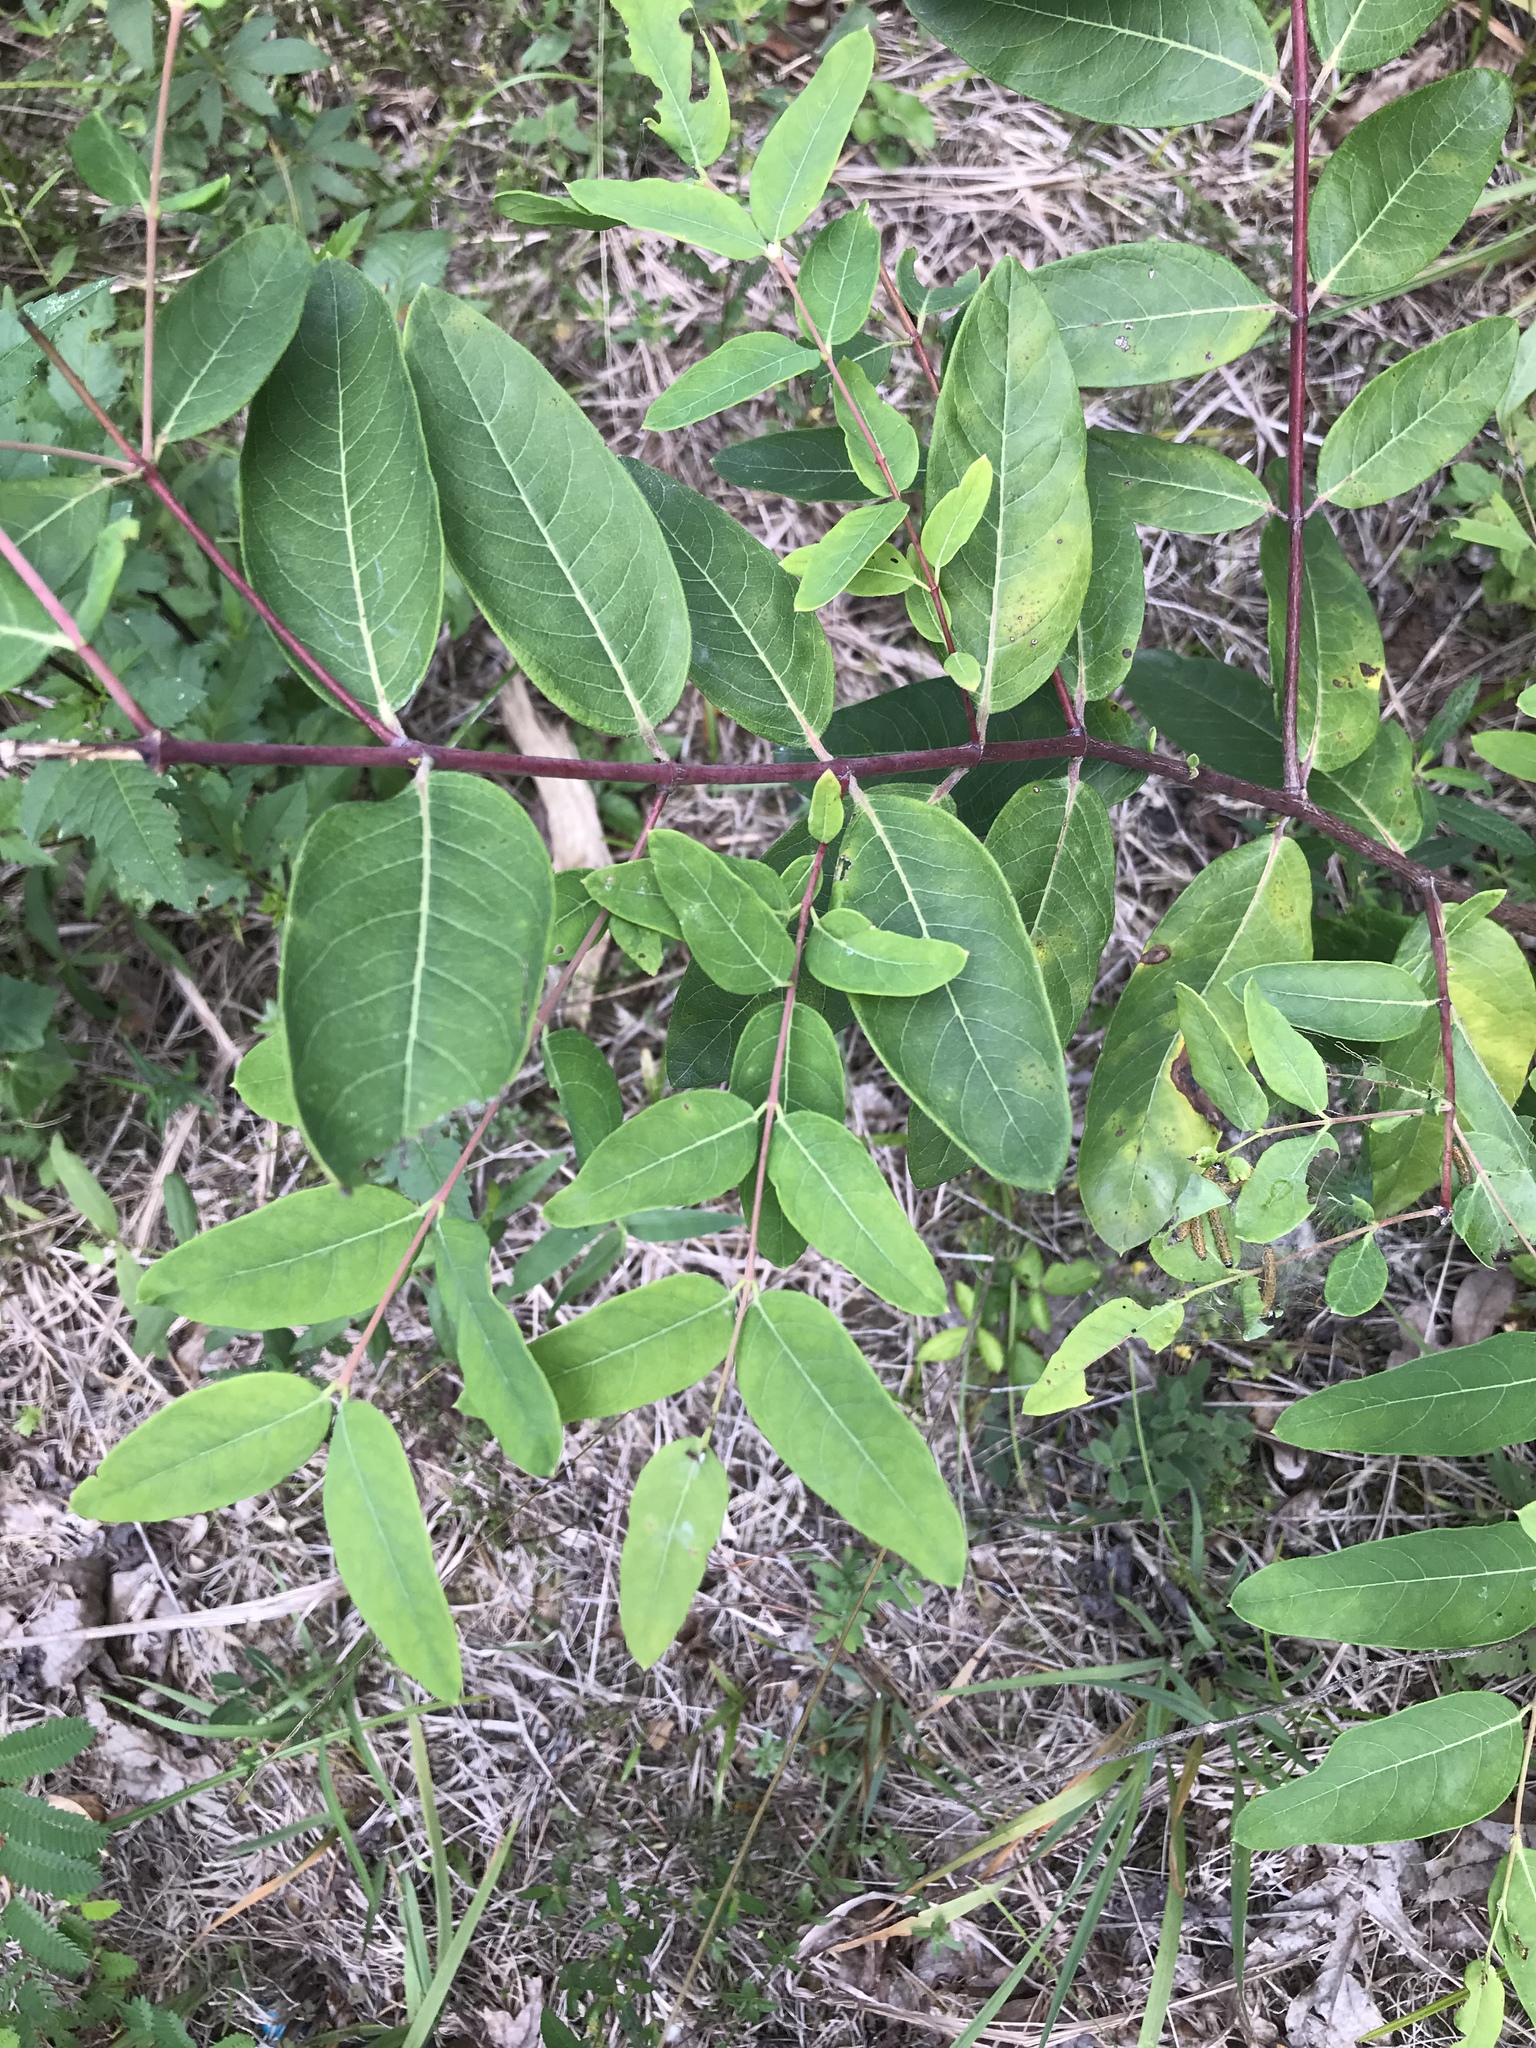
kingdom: Plantae
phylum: Tracheophyta
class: Magnoliopsida
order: Gentianales
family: Apocynaceae
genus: Apocynum
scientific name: Apocynum cannabinum
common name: Hemp dogbane
